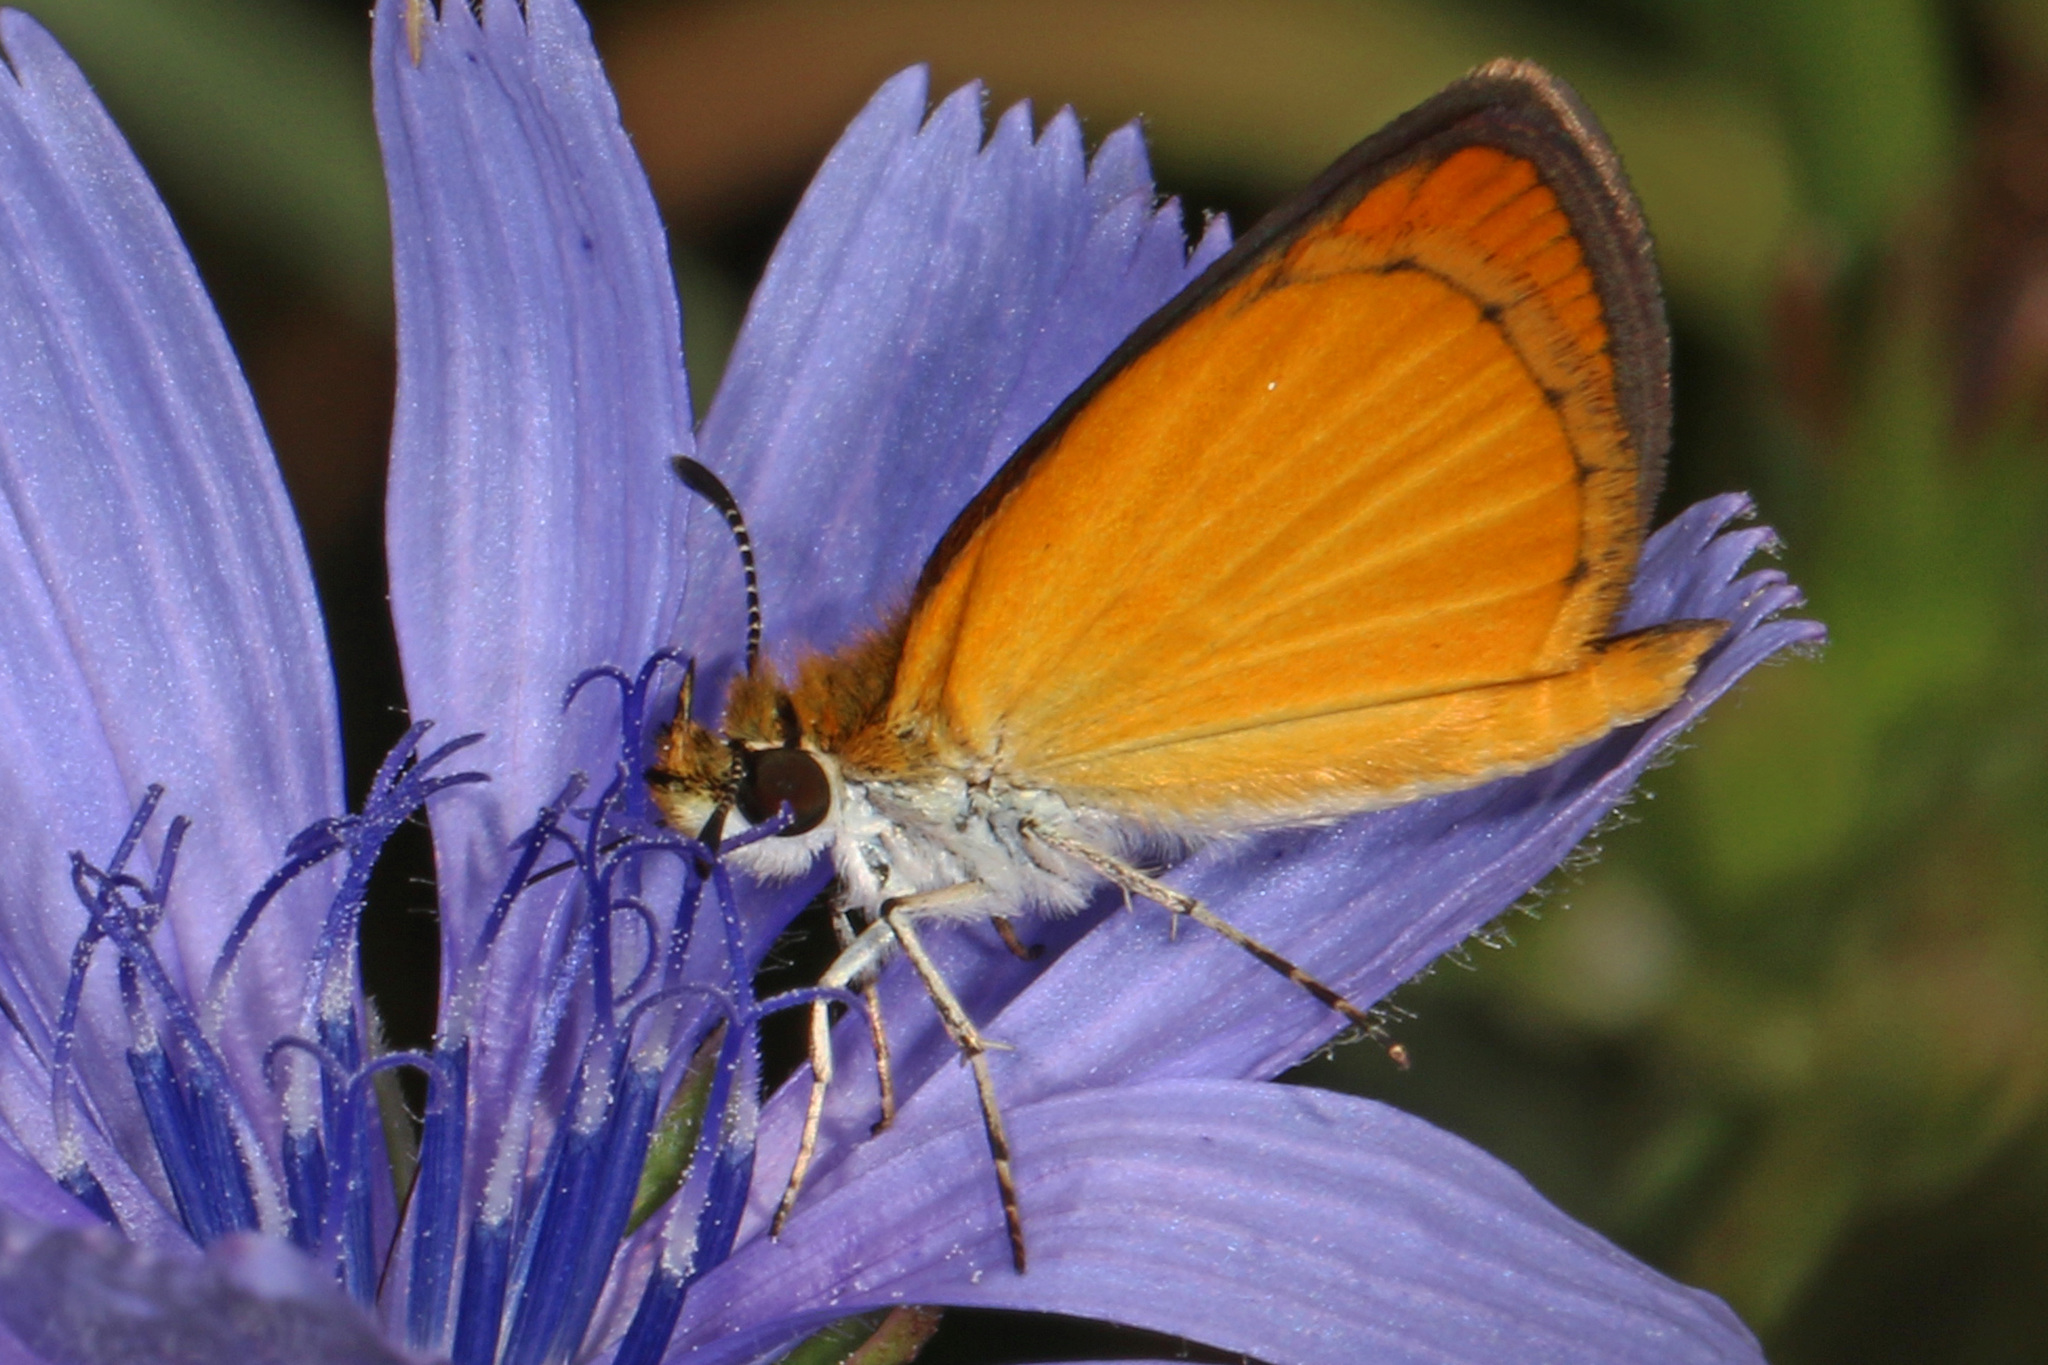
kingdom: Animalia
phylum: Arthropoda
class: Insecta
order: Lepidoptera
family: Hesperiidae
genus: Ancyloxypha
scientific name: Ancyloxypha numitor
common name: Least skipper
